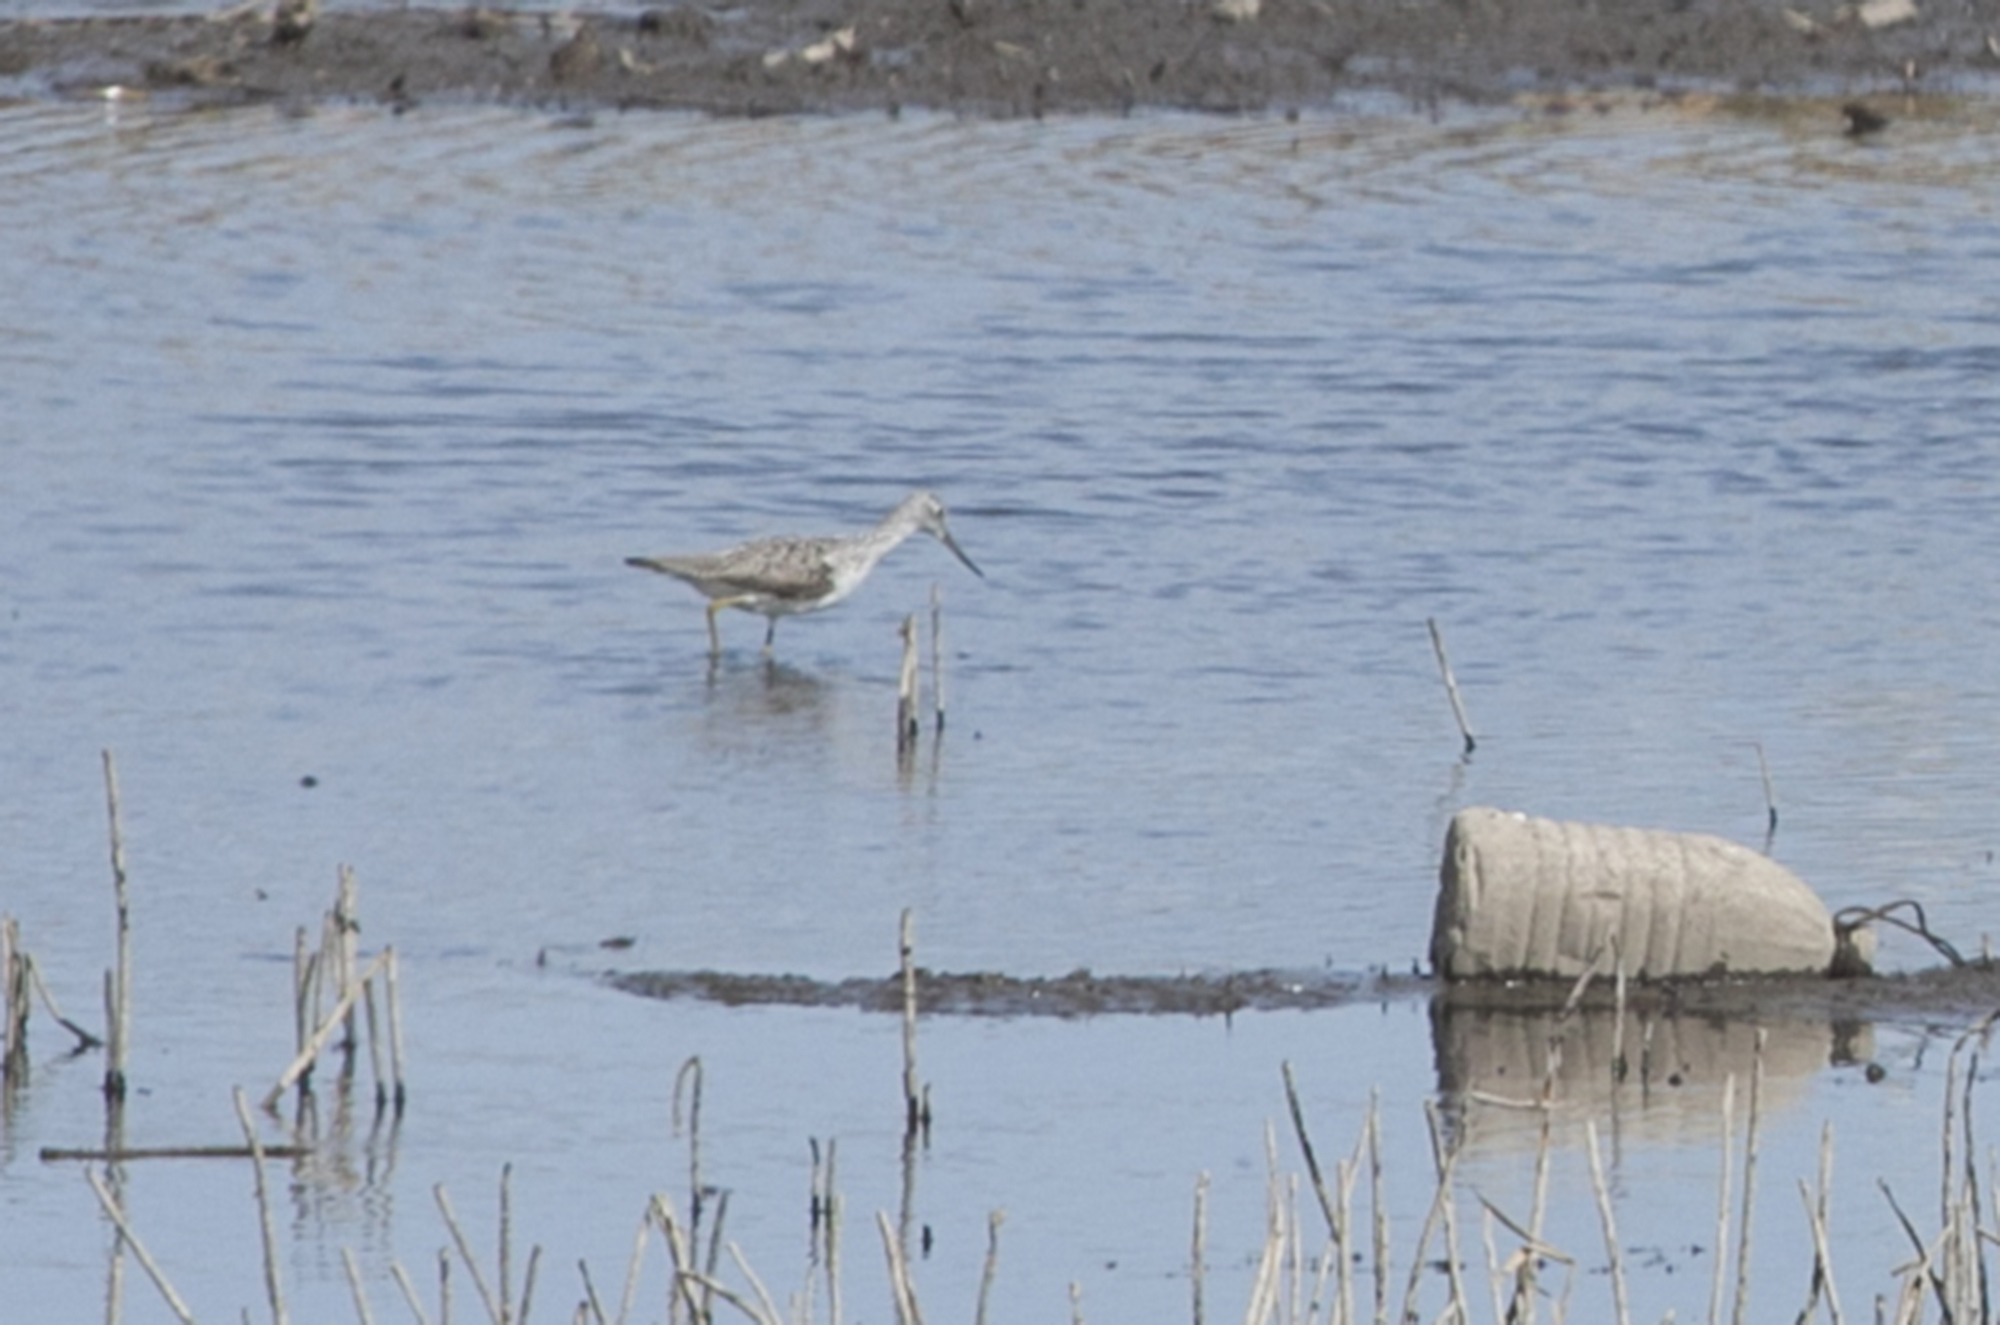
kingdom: Animalia
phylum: Chordata
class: Aves
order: Charadriiformes
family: Scolopacidae
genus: Tringa
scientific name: Tringa nebularia
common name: Common greenshank
